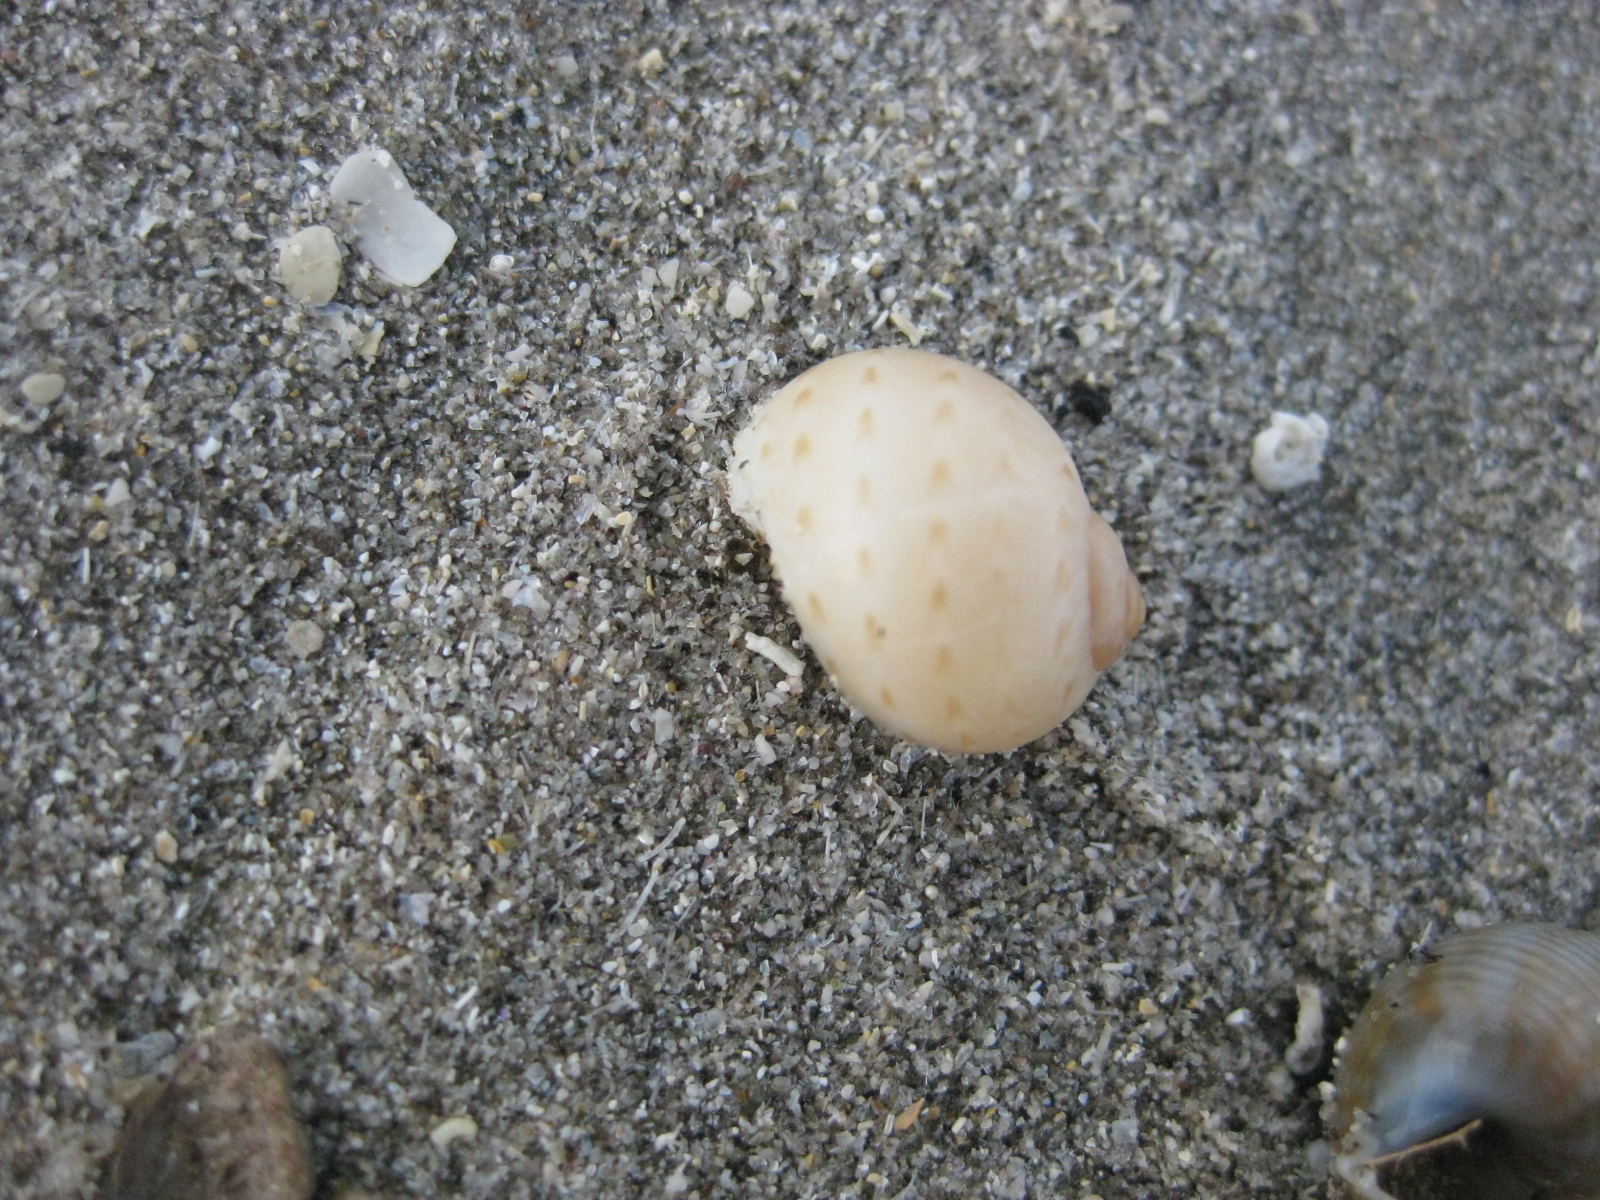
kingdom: Animalia
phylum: Mollusca
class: Gastropoda
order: Littorinimorpha
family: Naticidae
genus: Tanea
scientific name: Tanea zelandica
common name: New zealand moonsnail
